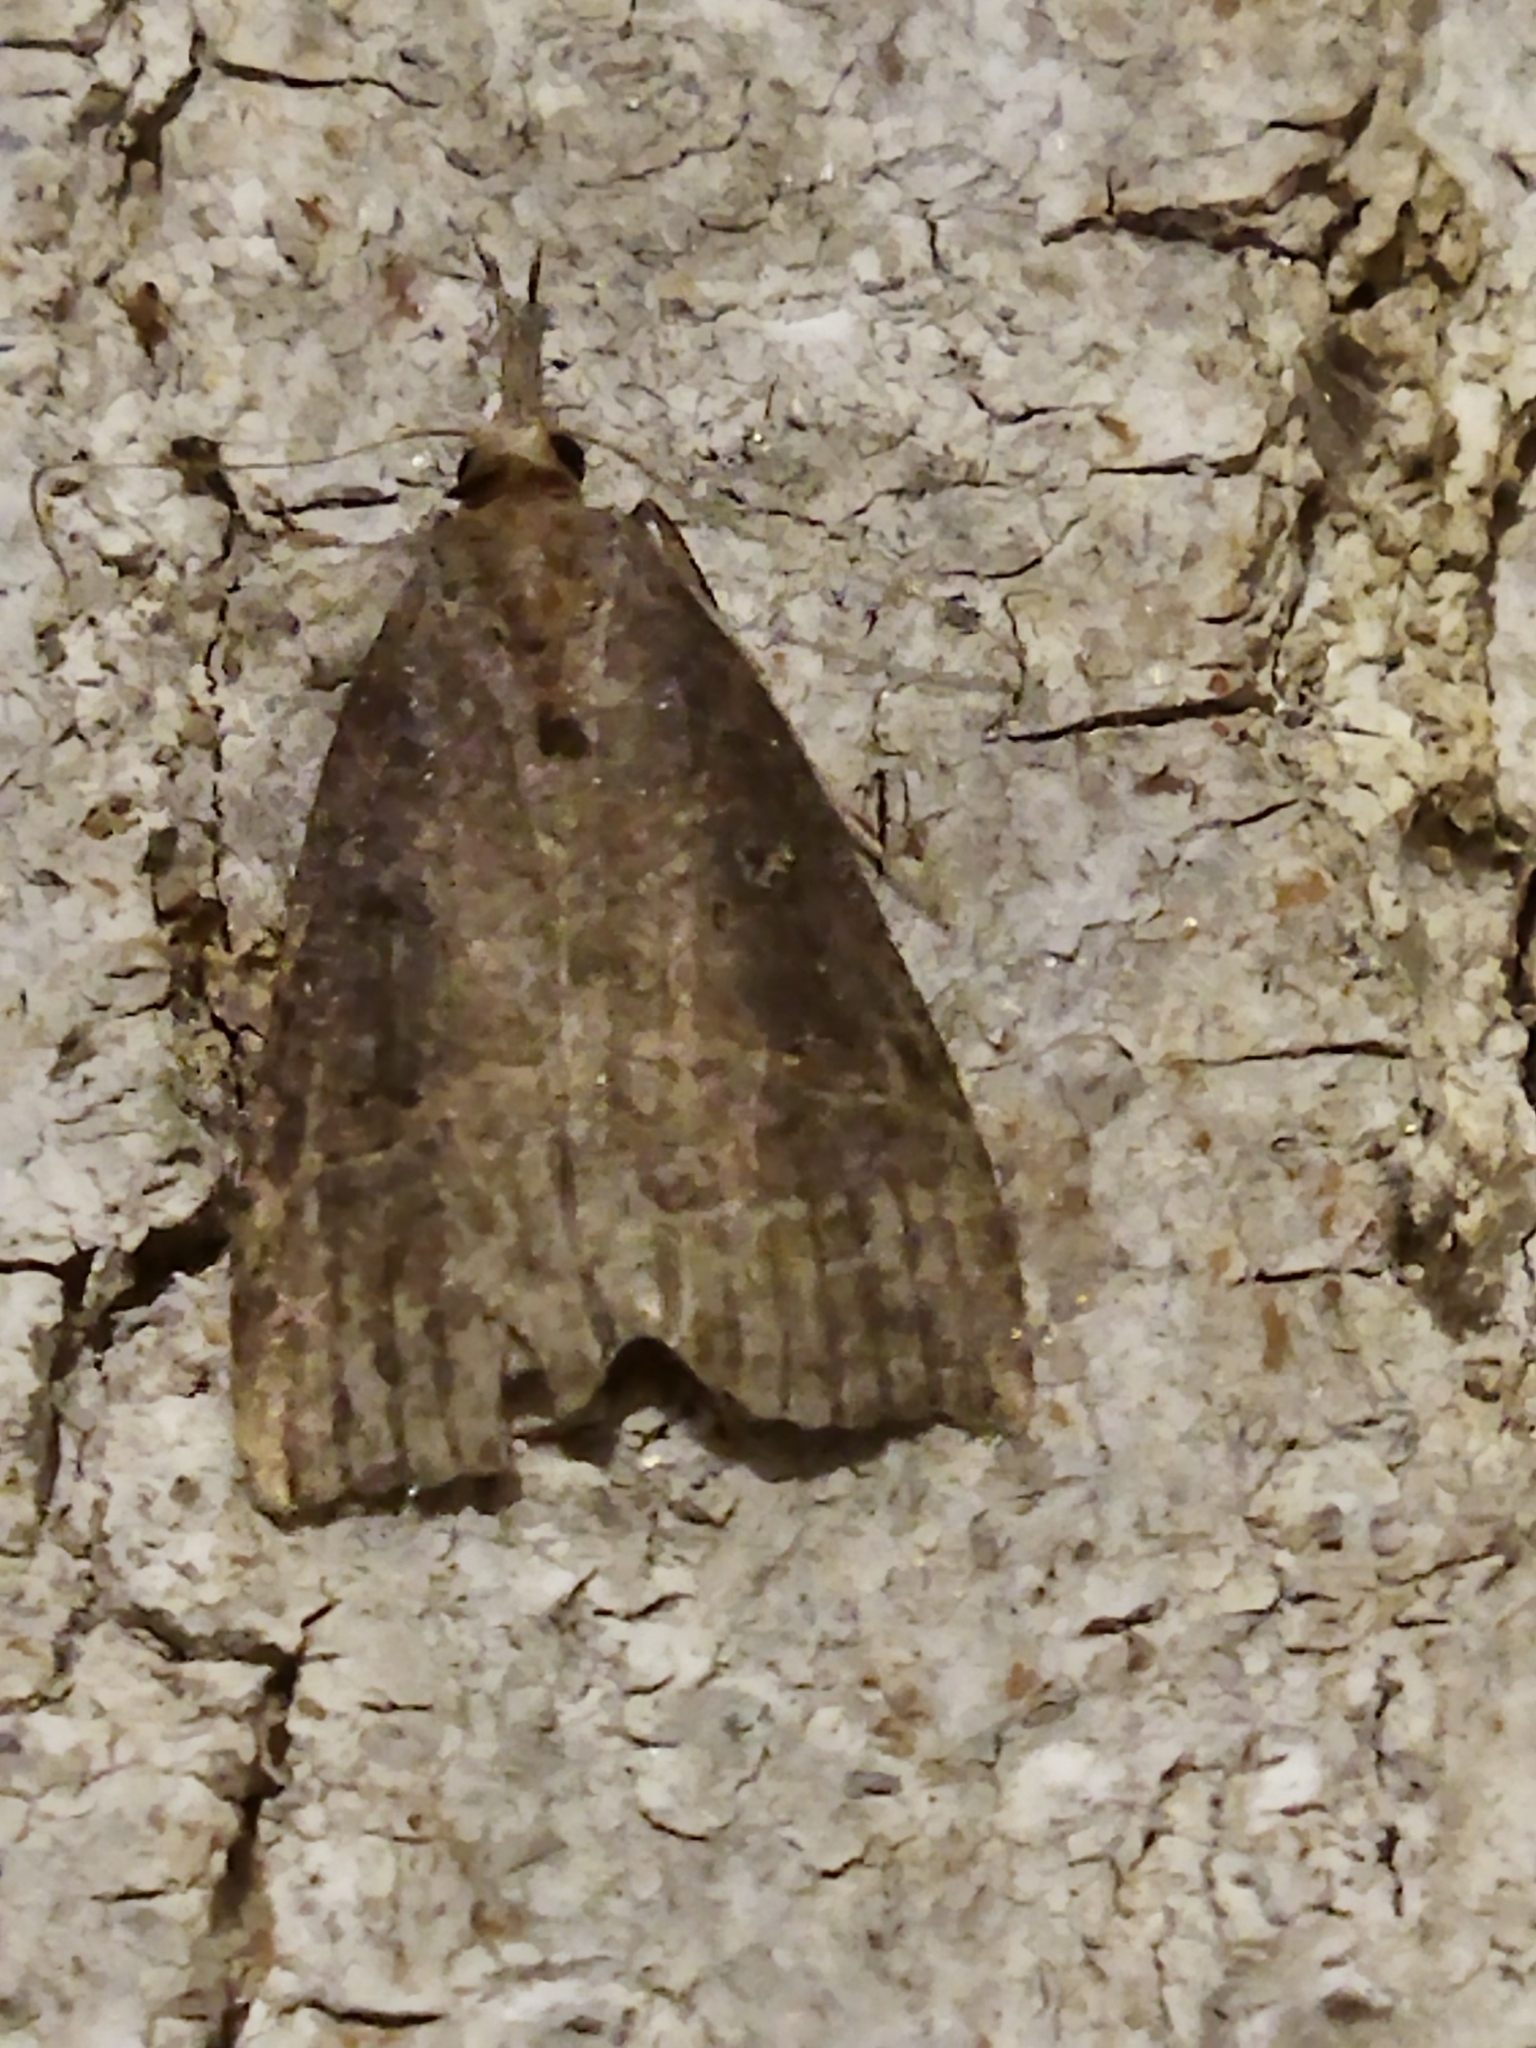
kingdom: Animalia
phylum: Arthropoda
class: Insecta
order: Lepidoptera
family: Erebidae
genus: Hypena
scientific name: Hypena rostralis
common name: Buttoned snout
